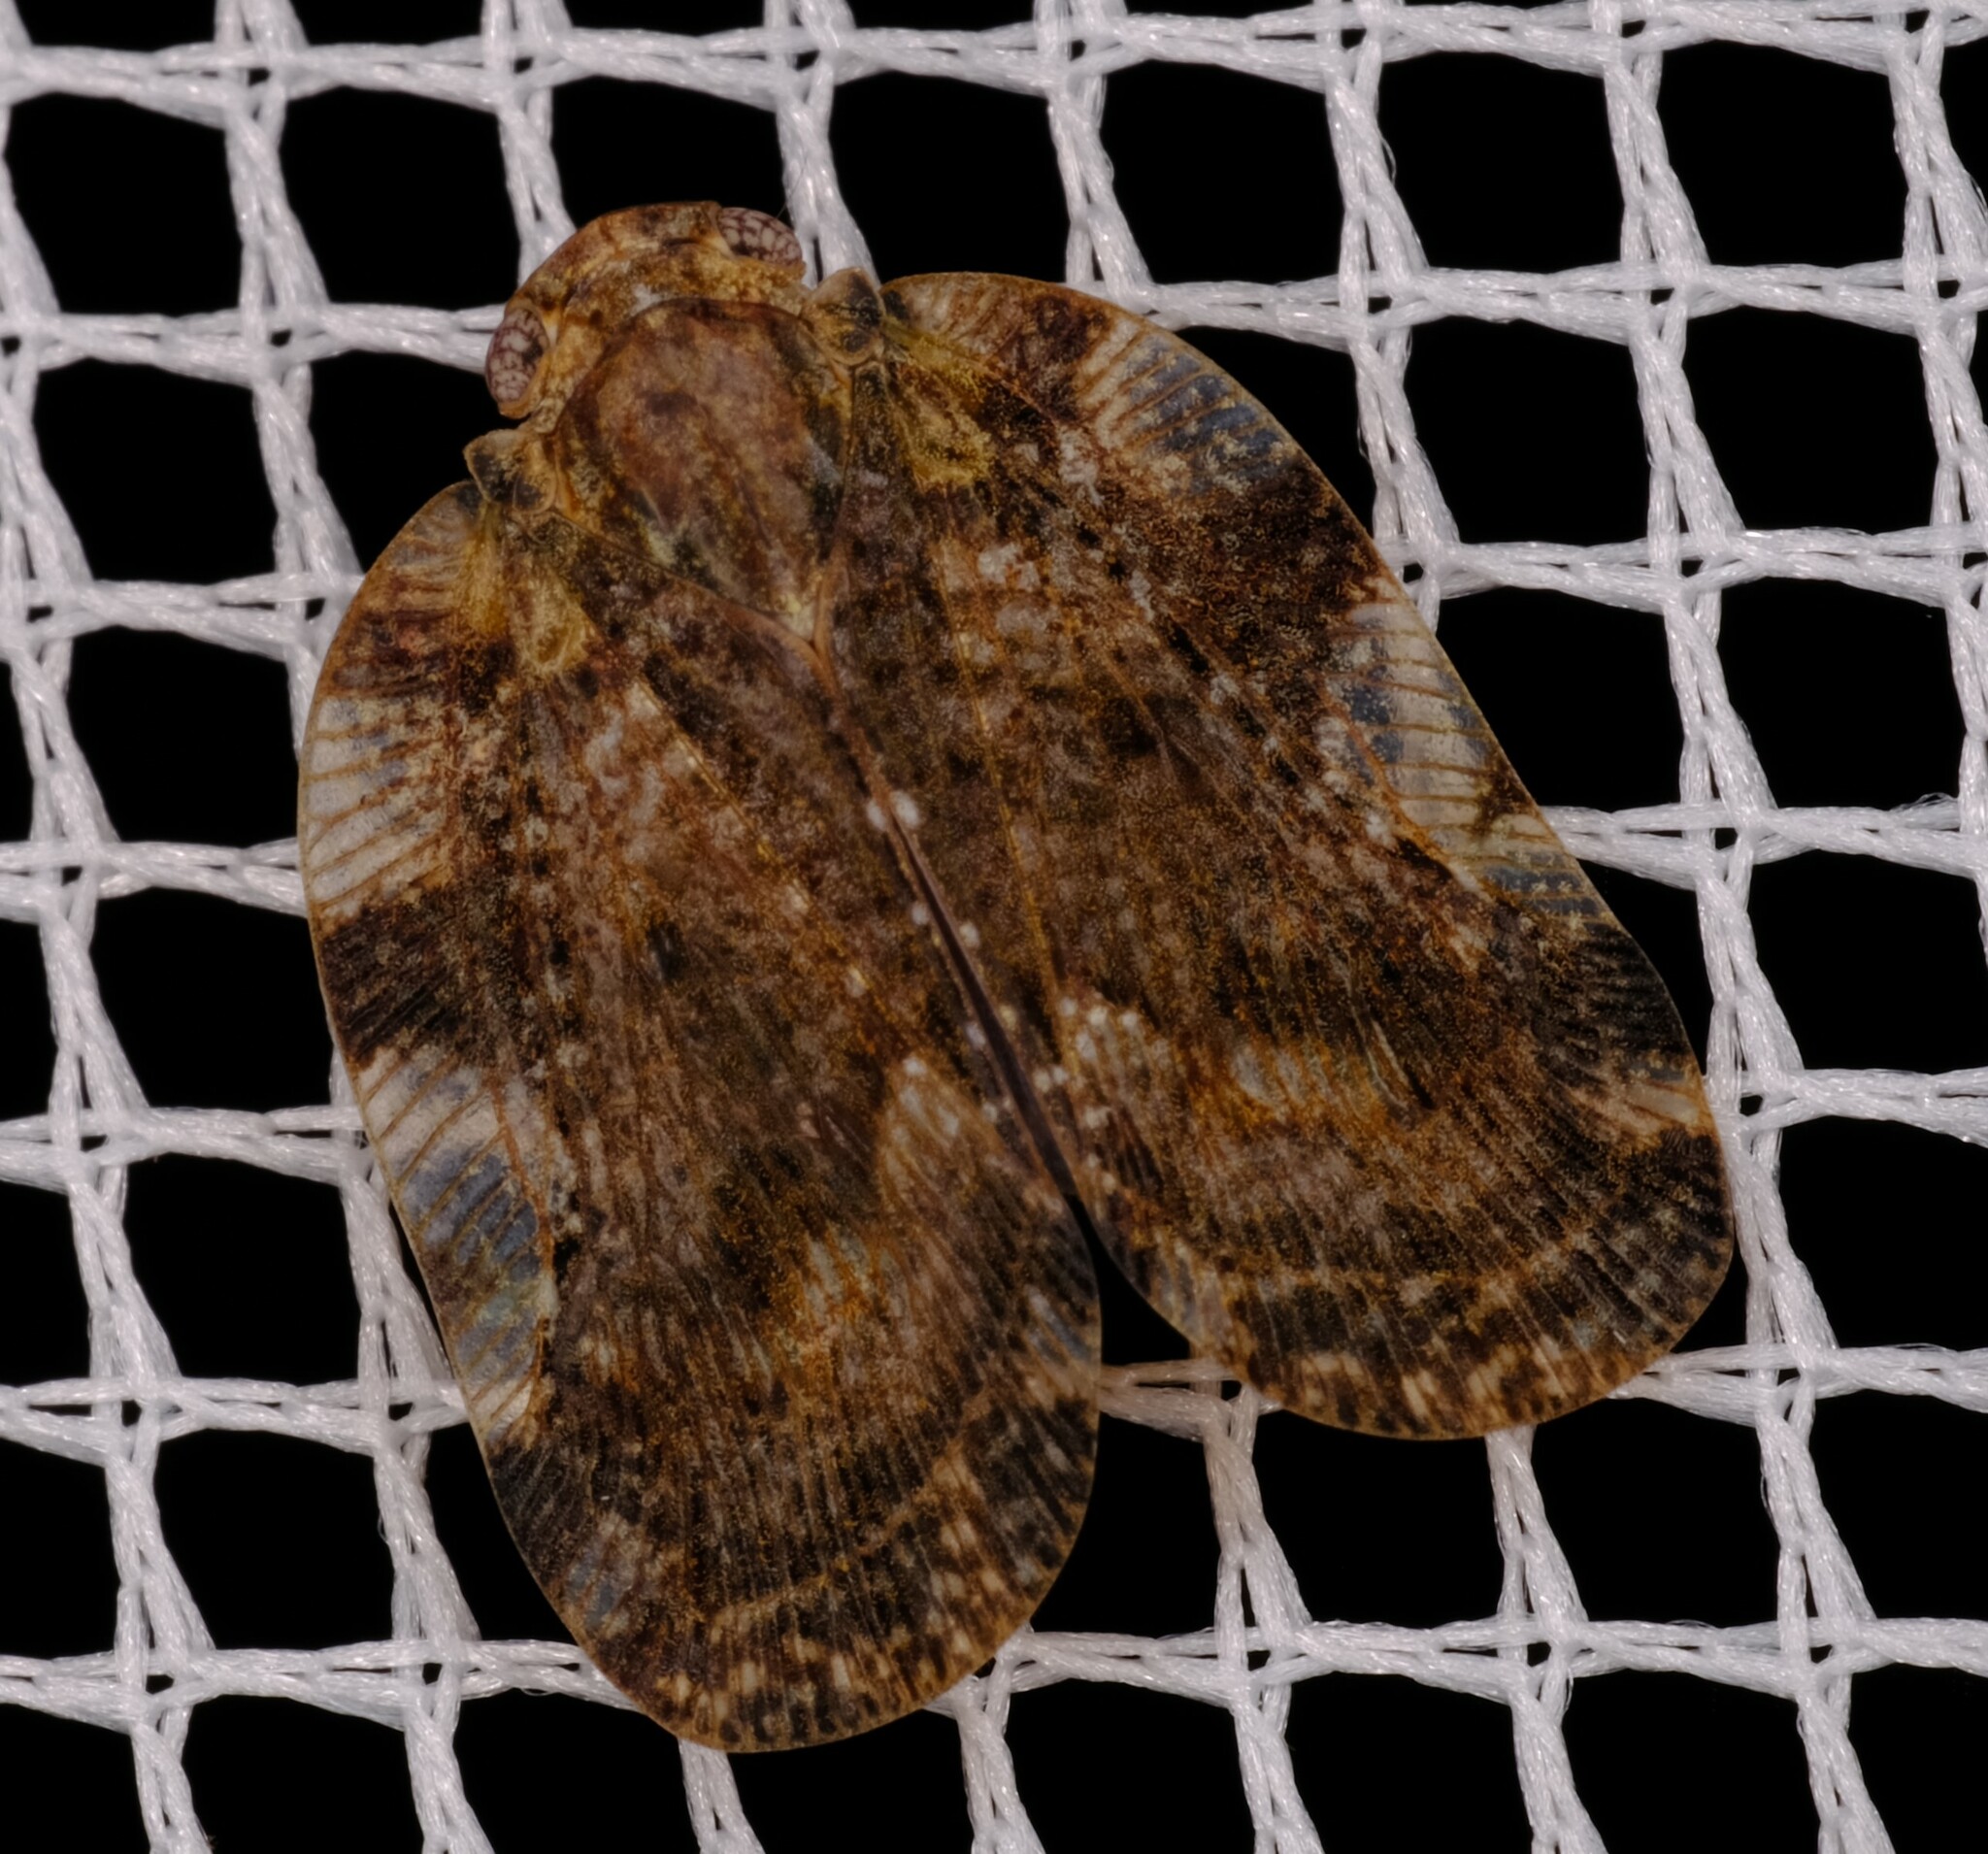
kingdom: Animalia
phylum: Arthropoda
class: Insecta
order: Hemiptera
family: Ricaniidae
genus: Aprivesa
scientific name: Aprivesa exuta
